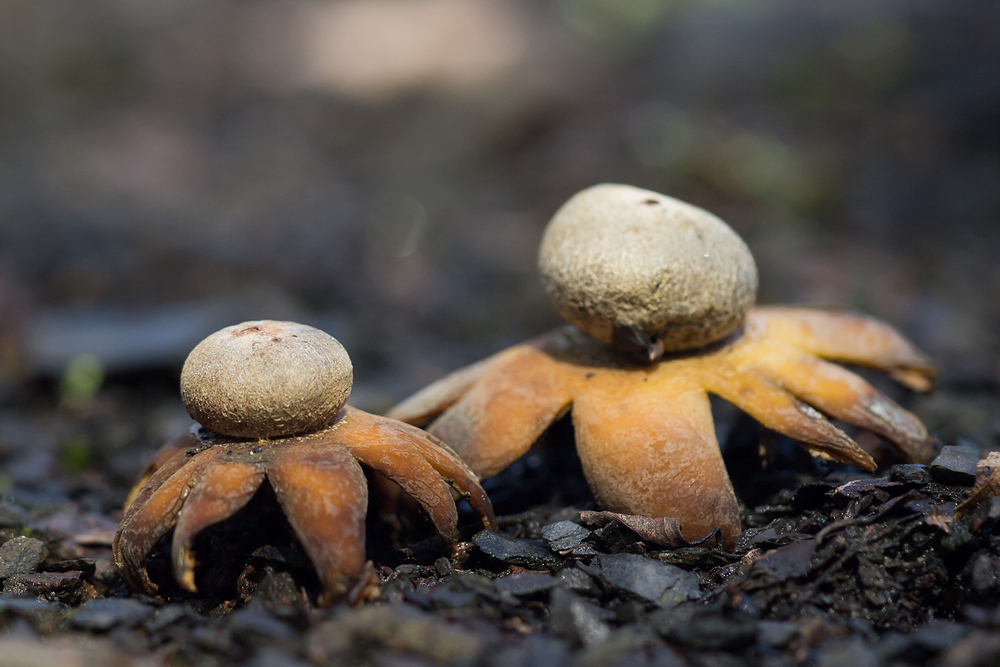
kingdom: Fungi
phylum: Basidiomycota
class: Agaricomycetes
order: Boletales
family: Diplocystidiaceae
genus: Astraeus
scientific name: Astraeus hygrometricus
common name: Barometer earthstar
